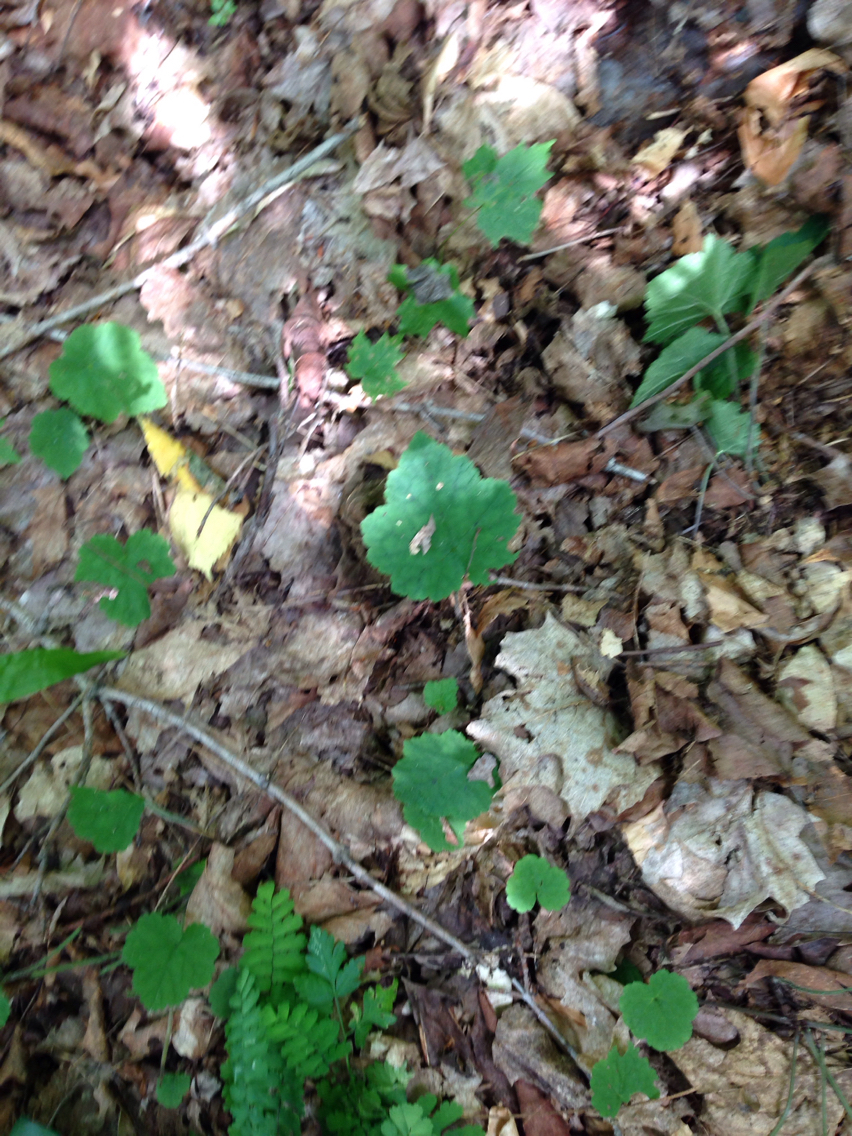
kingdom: Plantae
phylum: Tracheophyta
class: Magnoliopsida
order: Saxifragales
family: Saxifragaceae
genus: Tiarella
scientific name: Tiarella stolonifera
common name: Stoloniferous foamflower
